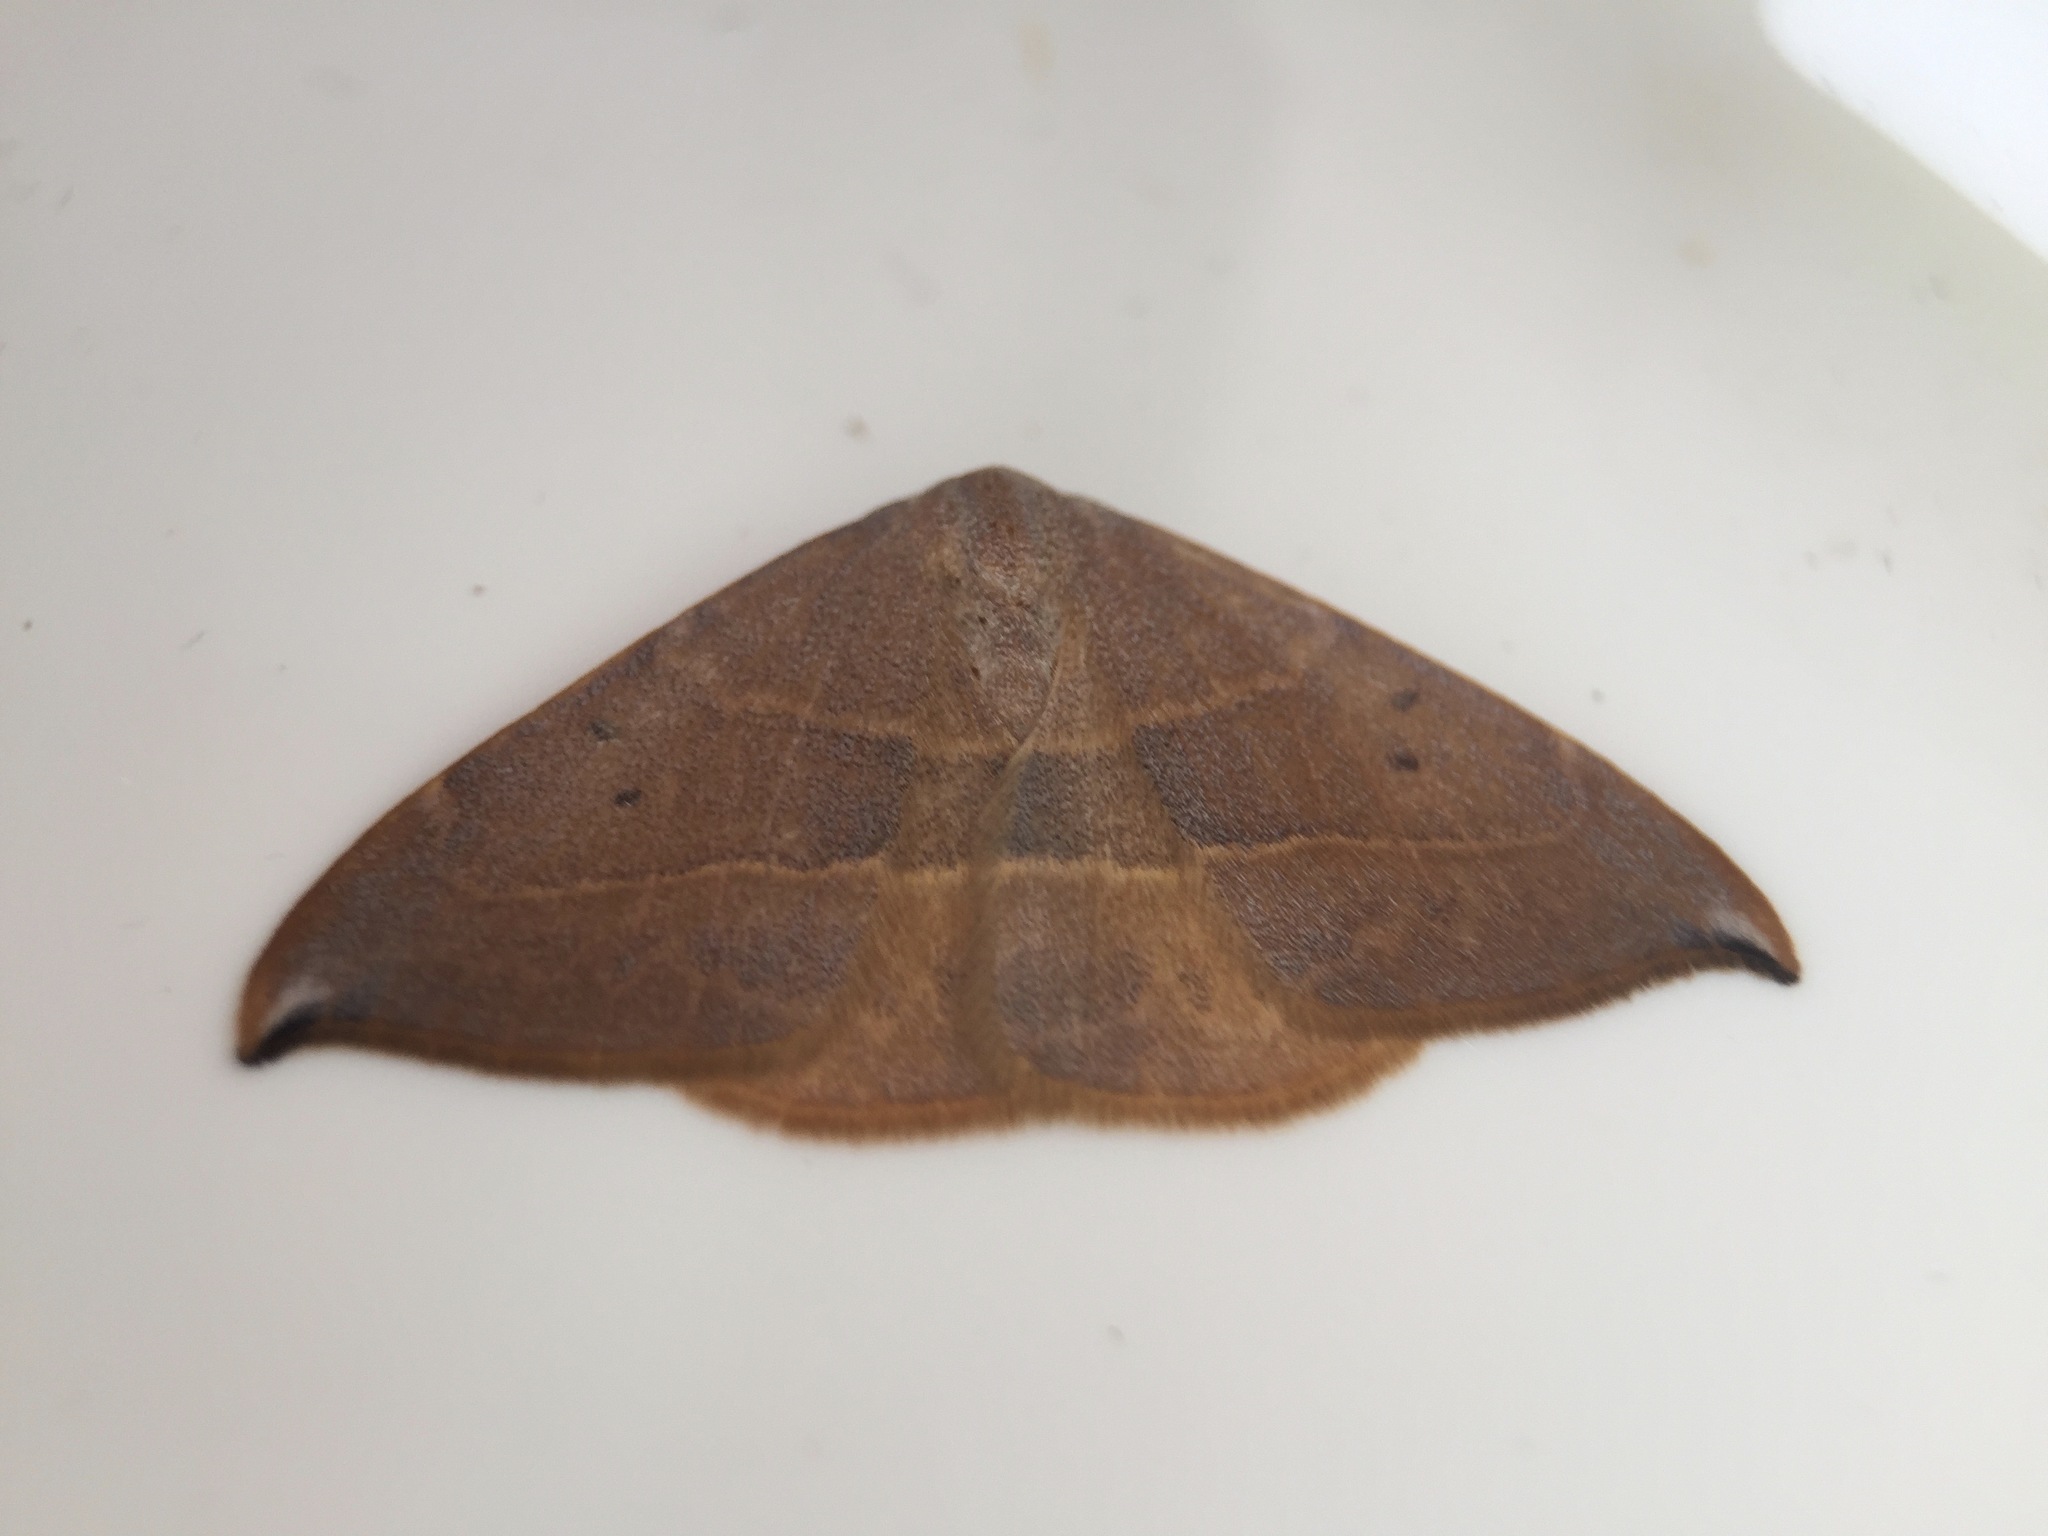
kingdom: Animalia
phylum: Arthropoda
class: Insecta
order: Lepidoptera
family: Drepanidae
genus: Watsonalla
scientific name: Watsonalla uncinula
